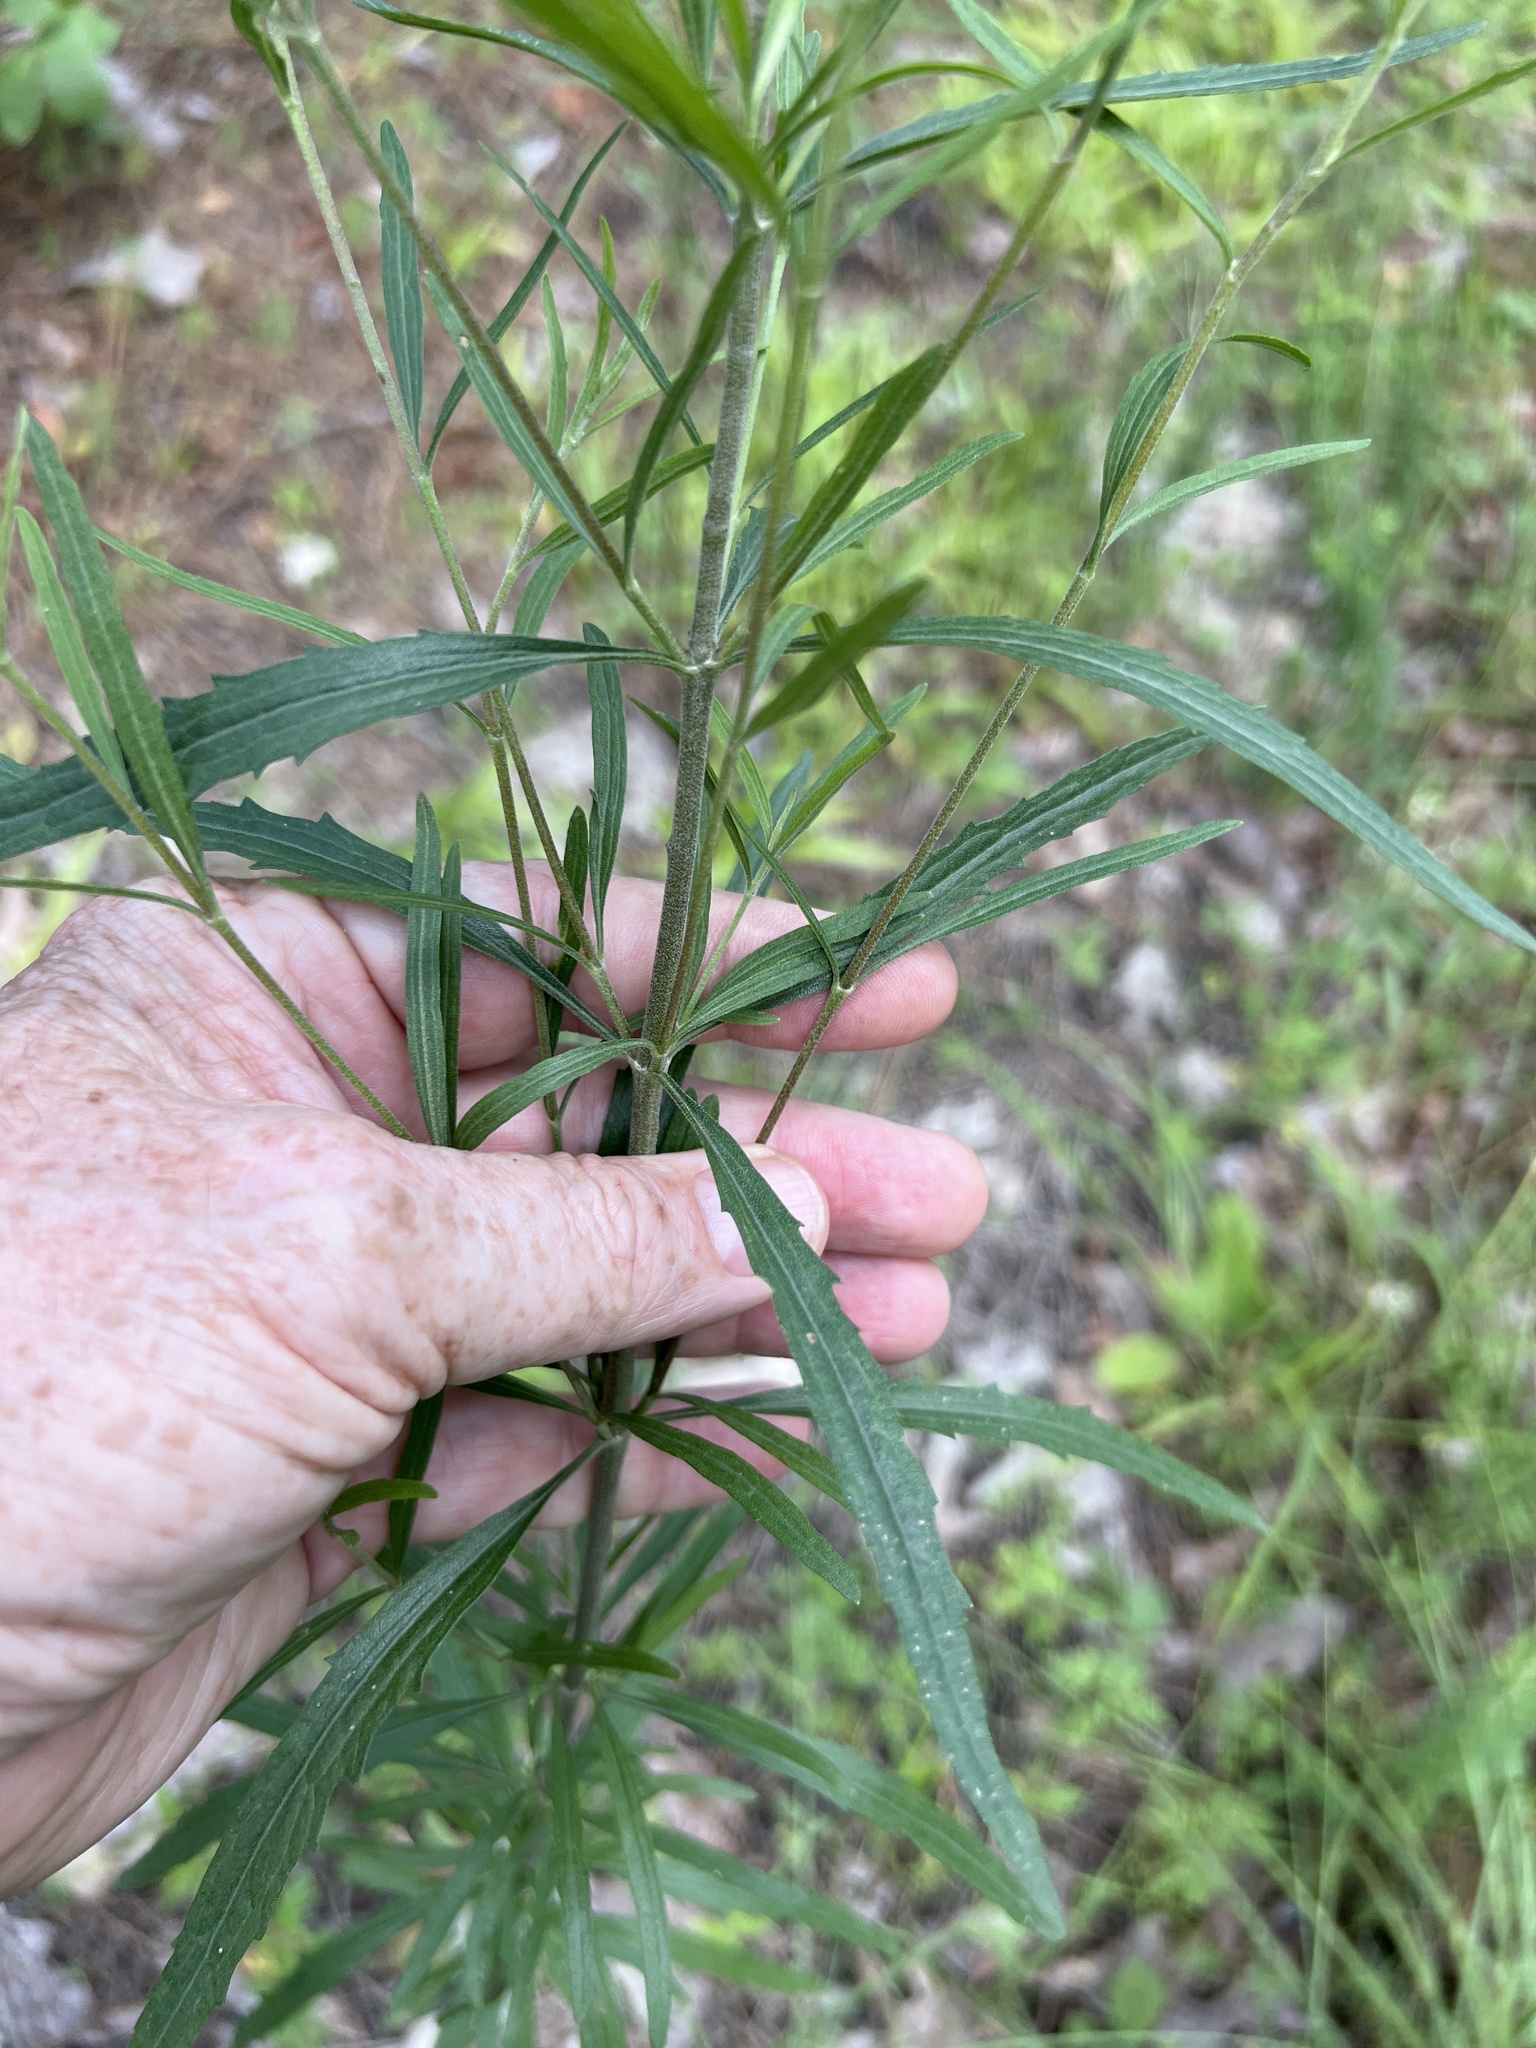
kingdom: Plantae
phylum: Tracheophyta
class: Magnoliopsida
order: Asterales
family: Asteraceae
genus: Eupatorium
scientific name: Eupatorium torreyanum
